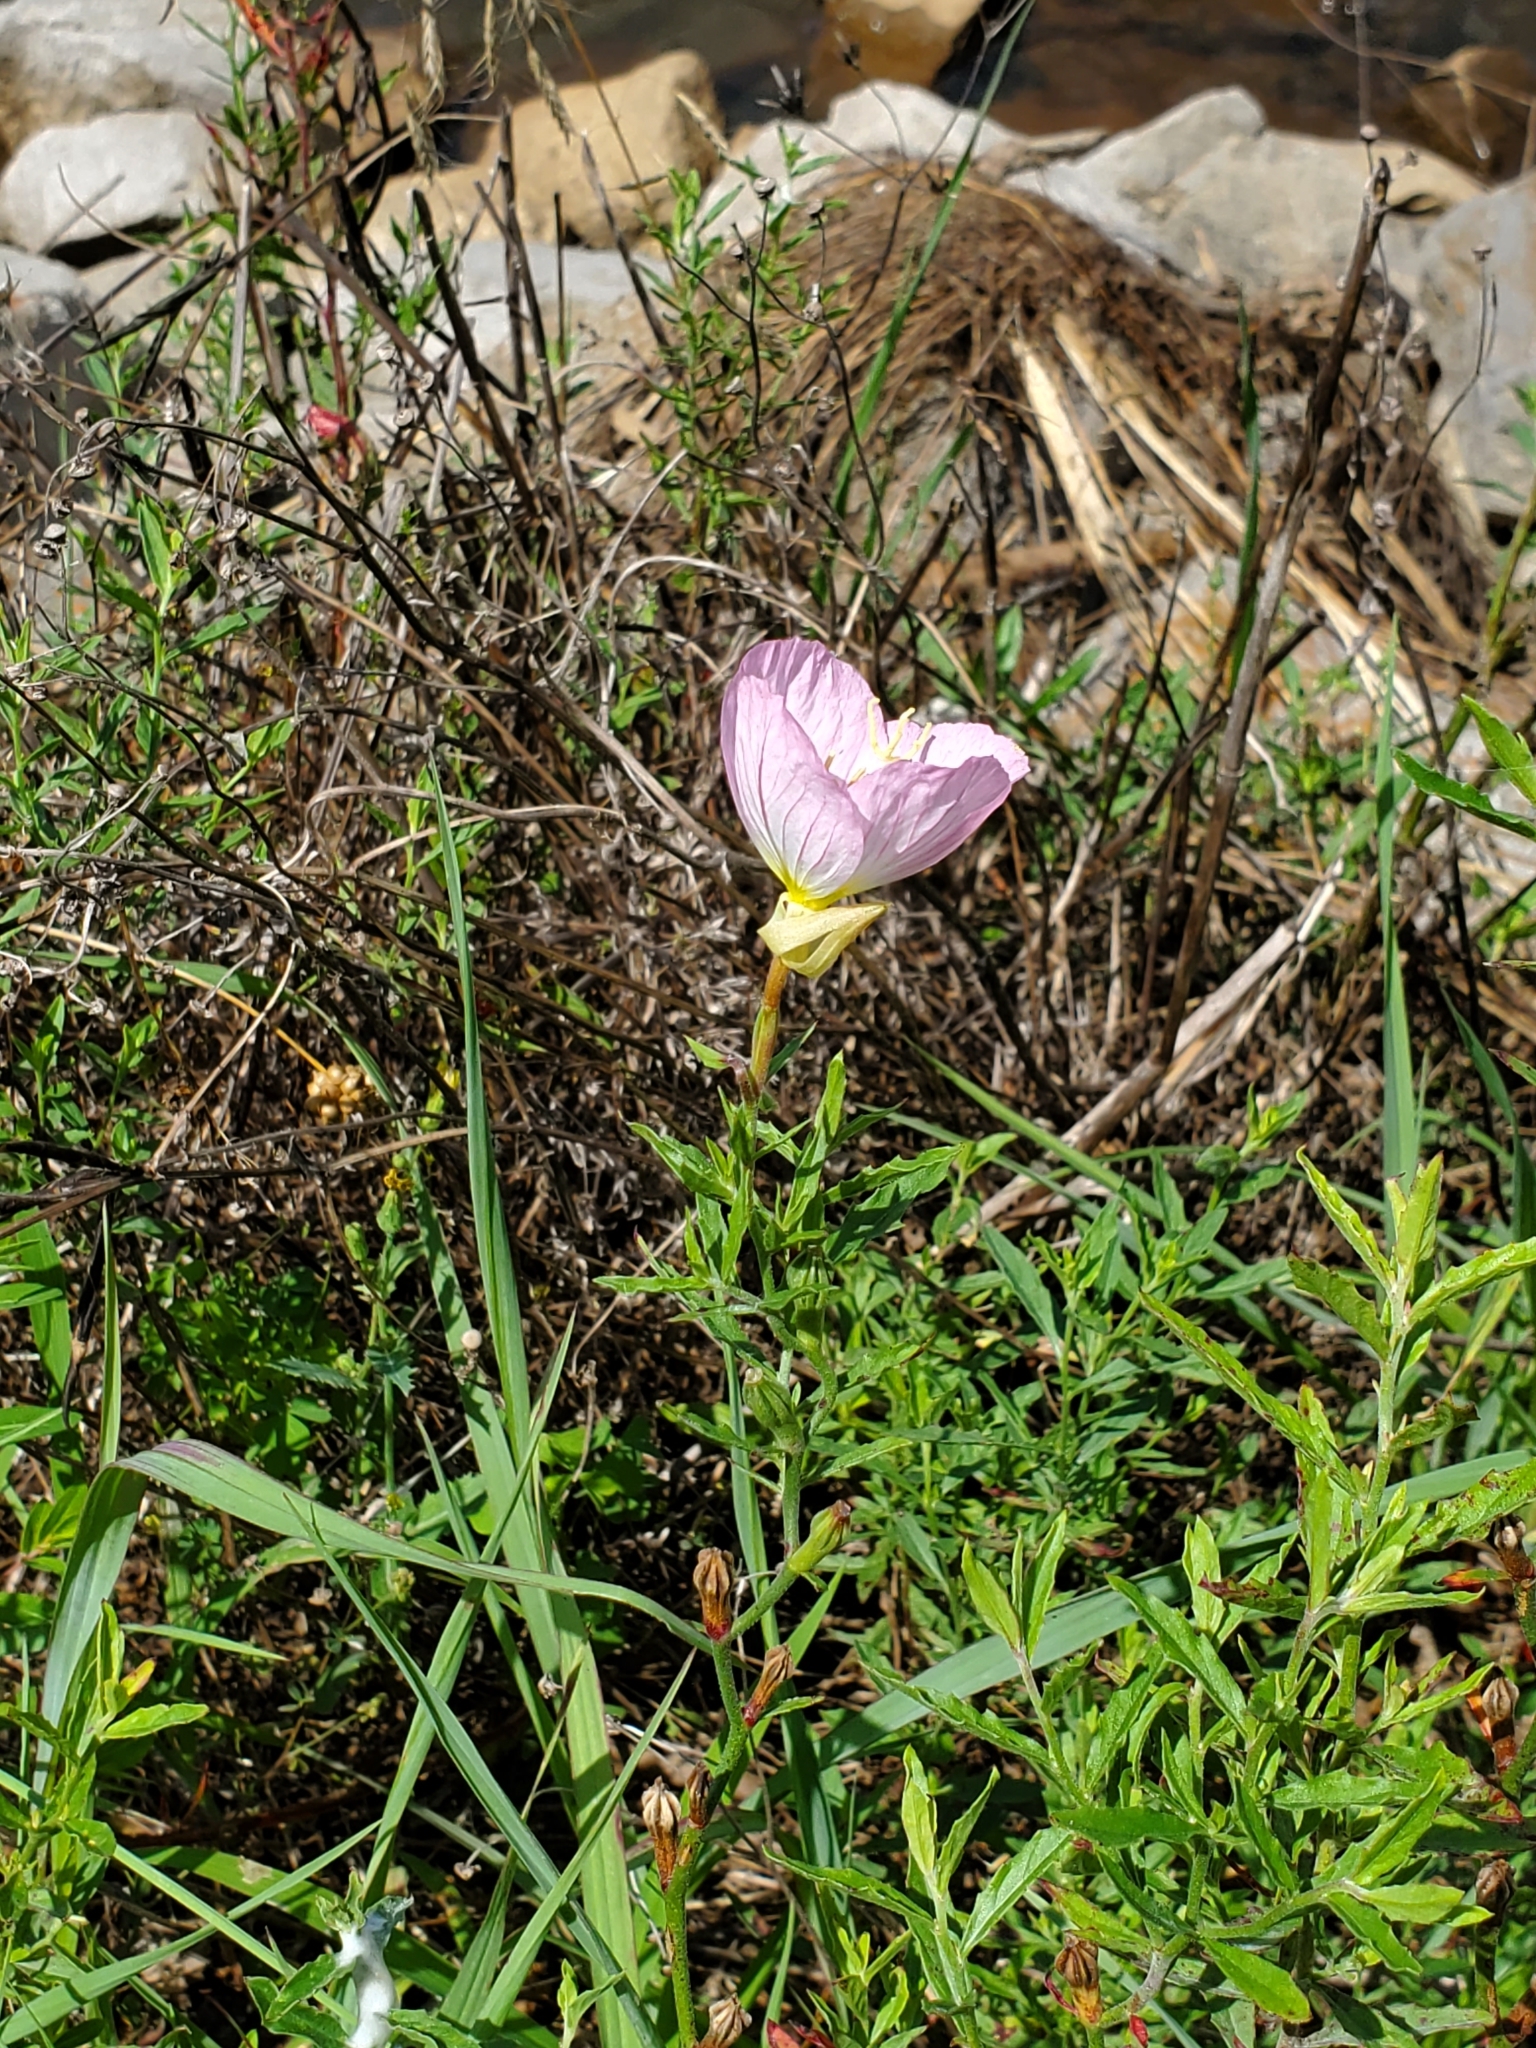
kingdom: Plantae
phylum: Tracheophyta
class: Magnoliopsida
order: Myrtales
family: Onagraceae
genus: Oenothera
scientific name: Oenothera speciosa
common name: White evening-primrose
